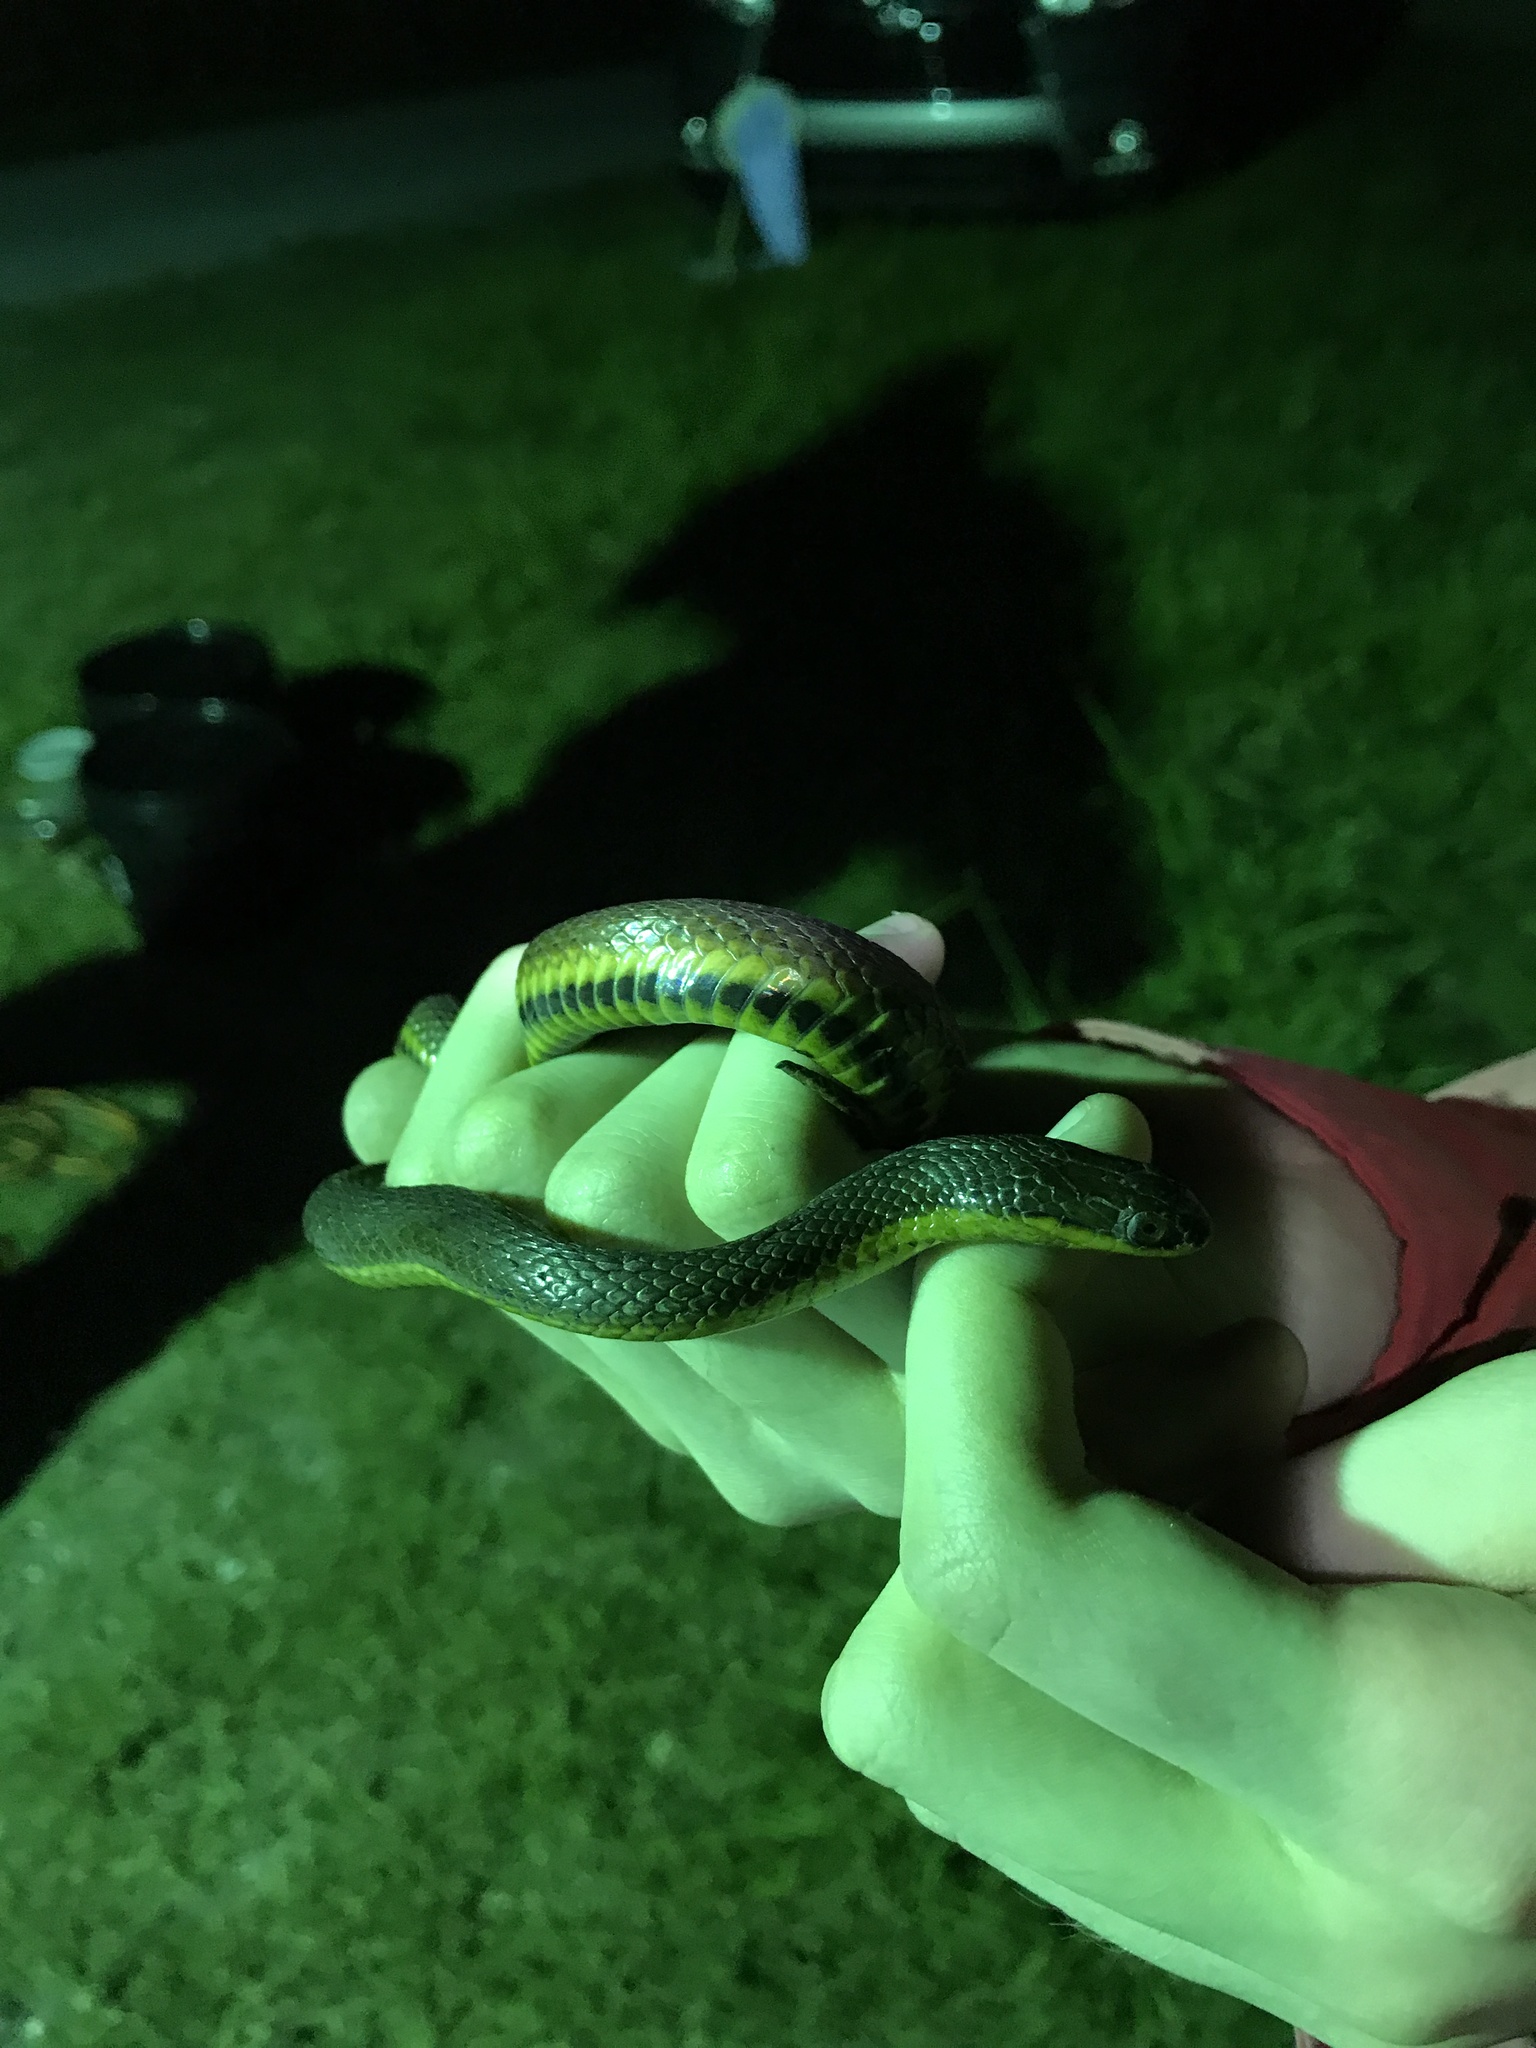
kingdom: Animalia
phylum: Chordata
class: Squamata
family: Colubridae
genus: Liodytes
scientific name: Liodytes rigida
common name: Crayfish snake
